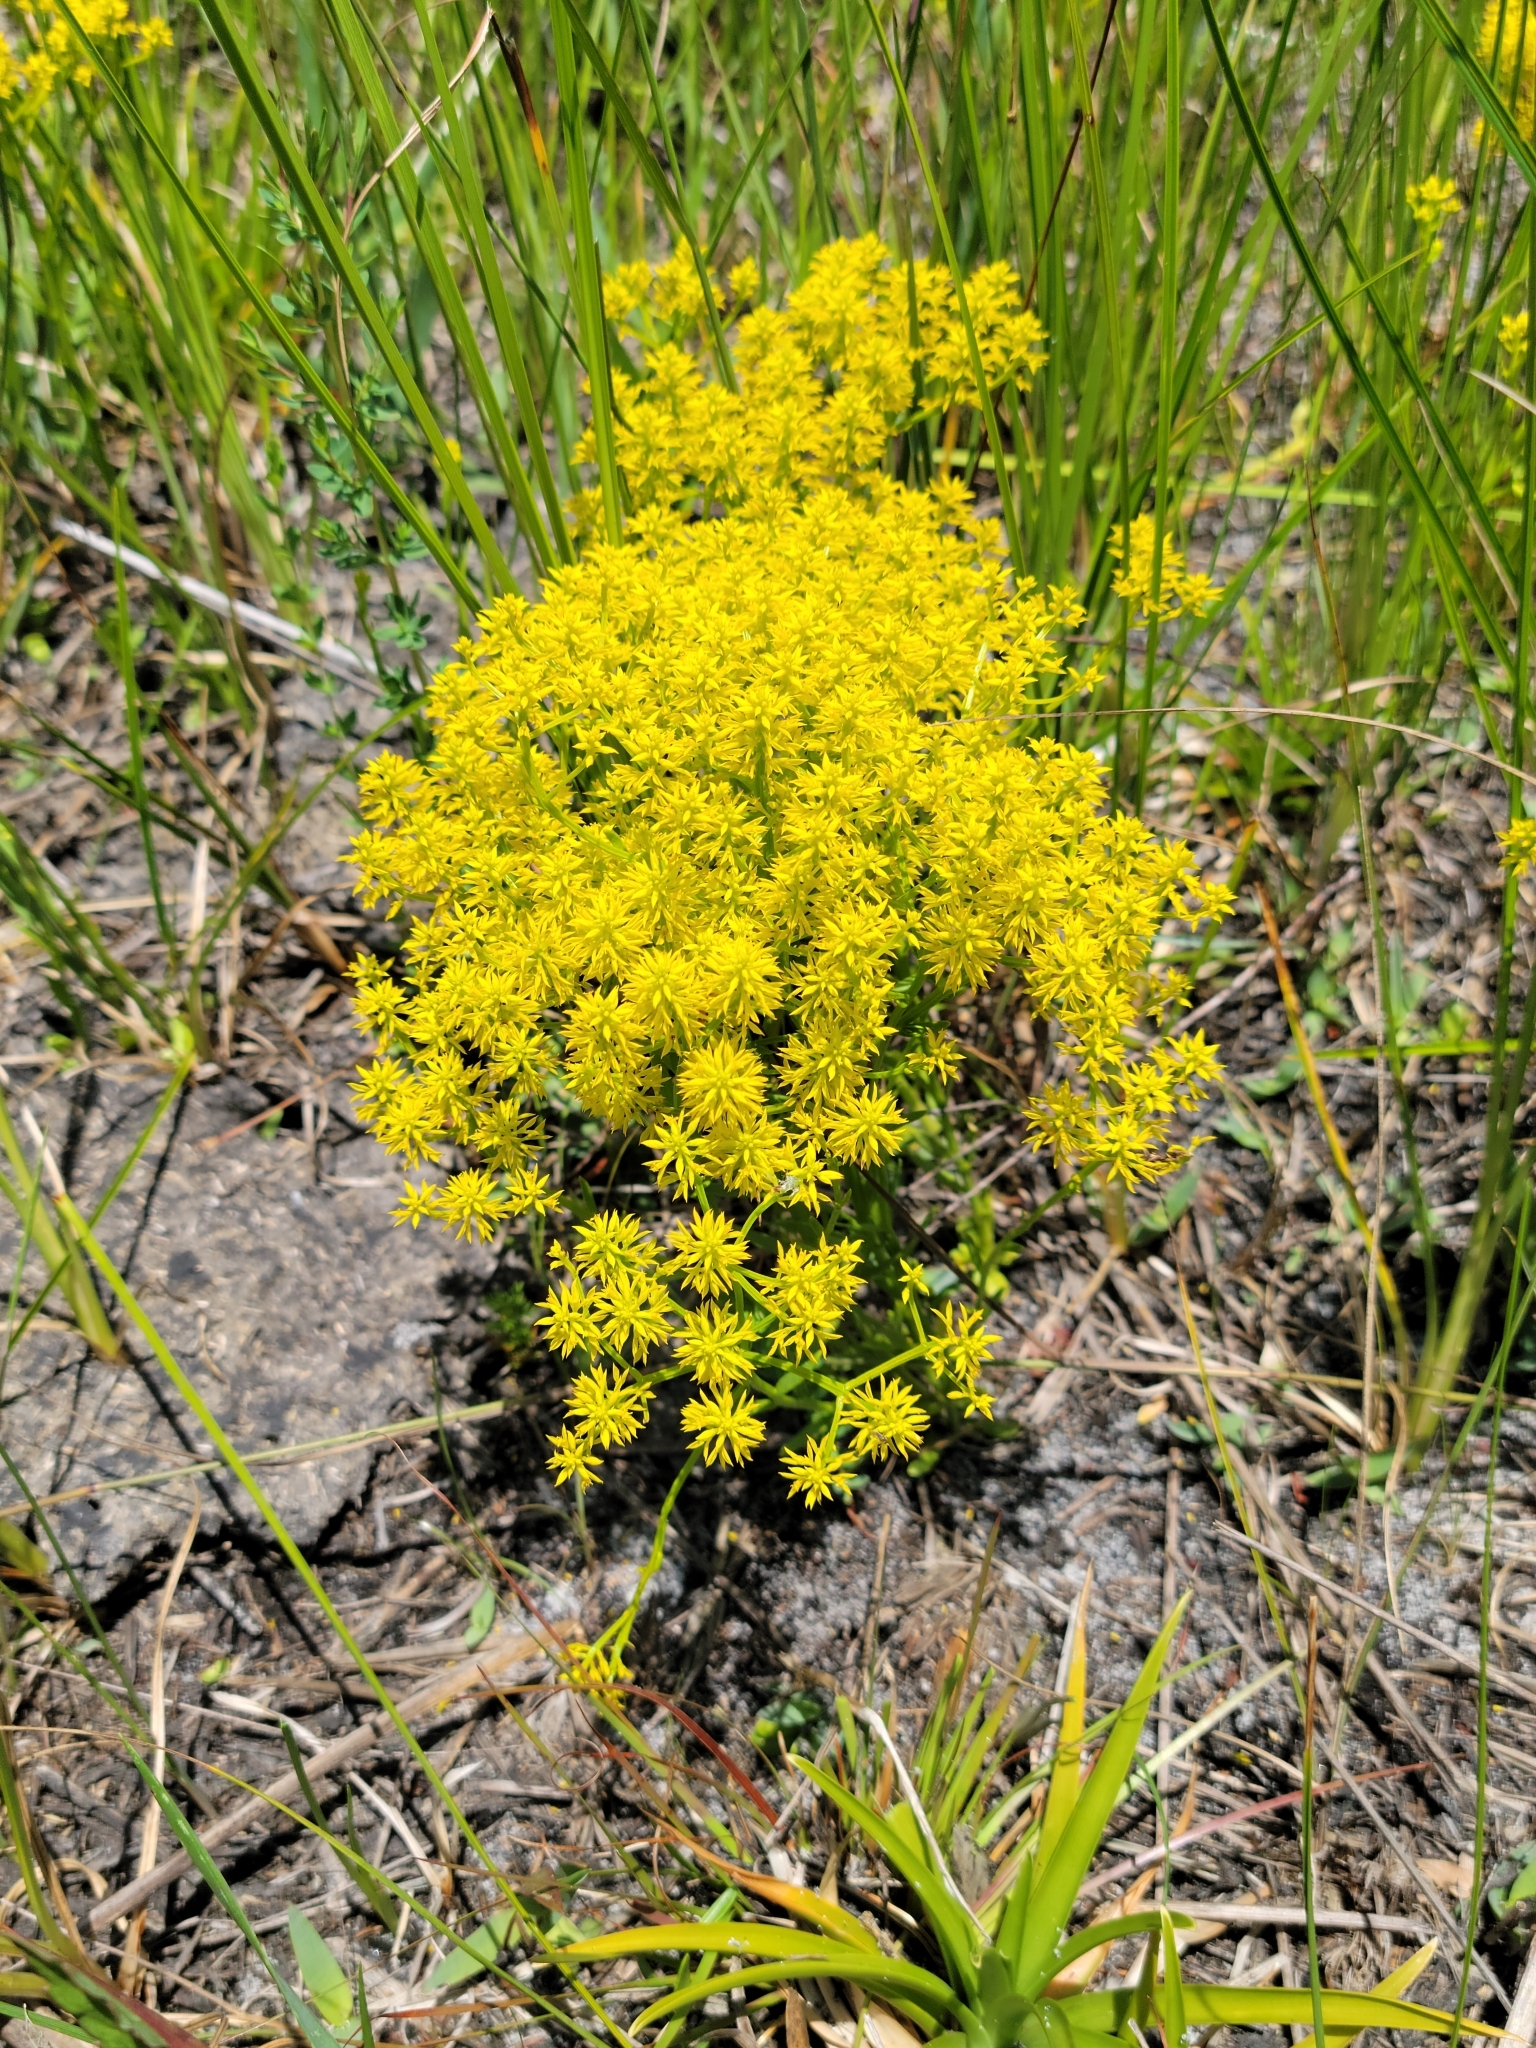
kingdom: Plantae
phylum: Tracheophyta
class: Magnoliopsida
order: Fabales
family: Polygalaceae
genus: Polygala
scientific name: Polygala ramosa
